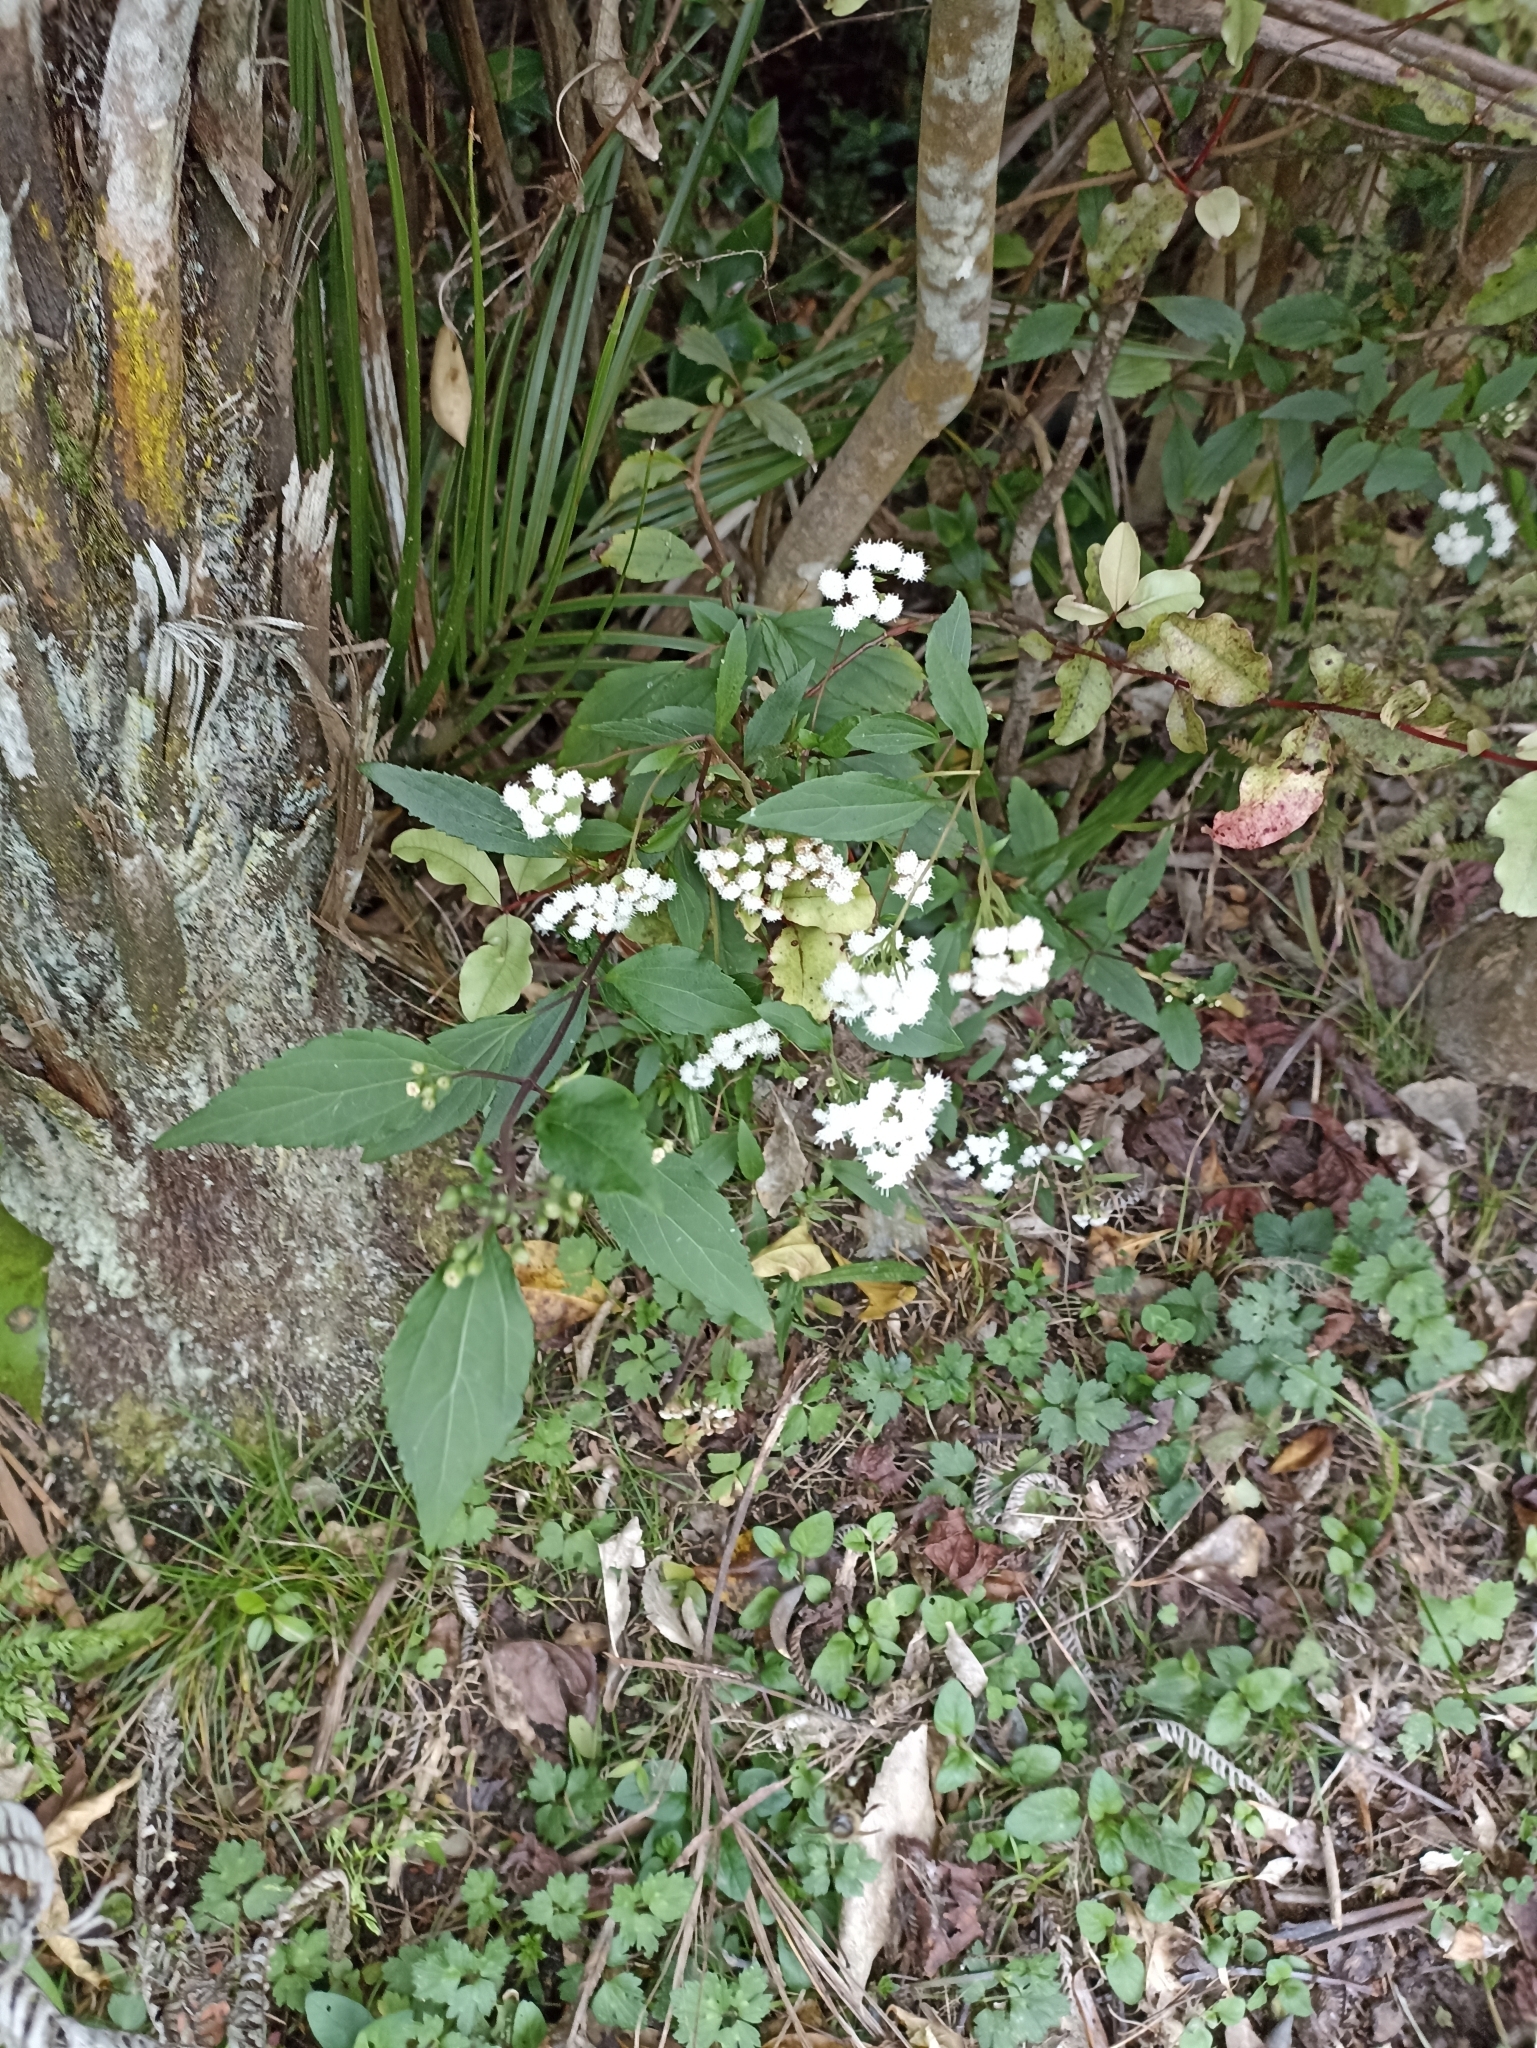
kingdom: Plantae
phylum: Tracheophyta
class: Magnoliopsida
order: Asterales
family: Asteraceae
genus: Ageratina
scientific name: Ageratina riparia
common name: Creeping croftonweed
